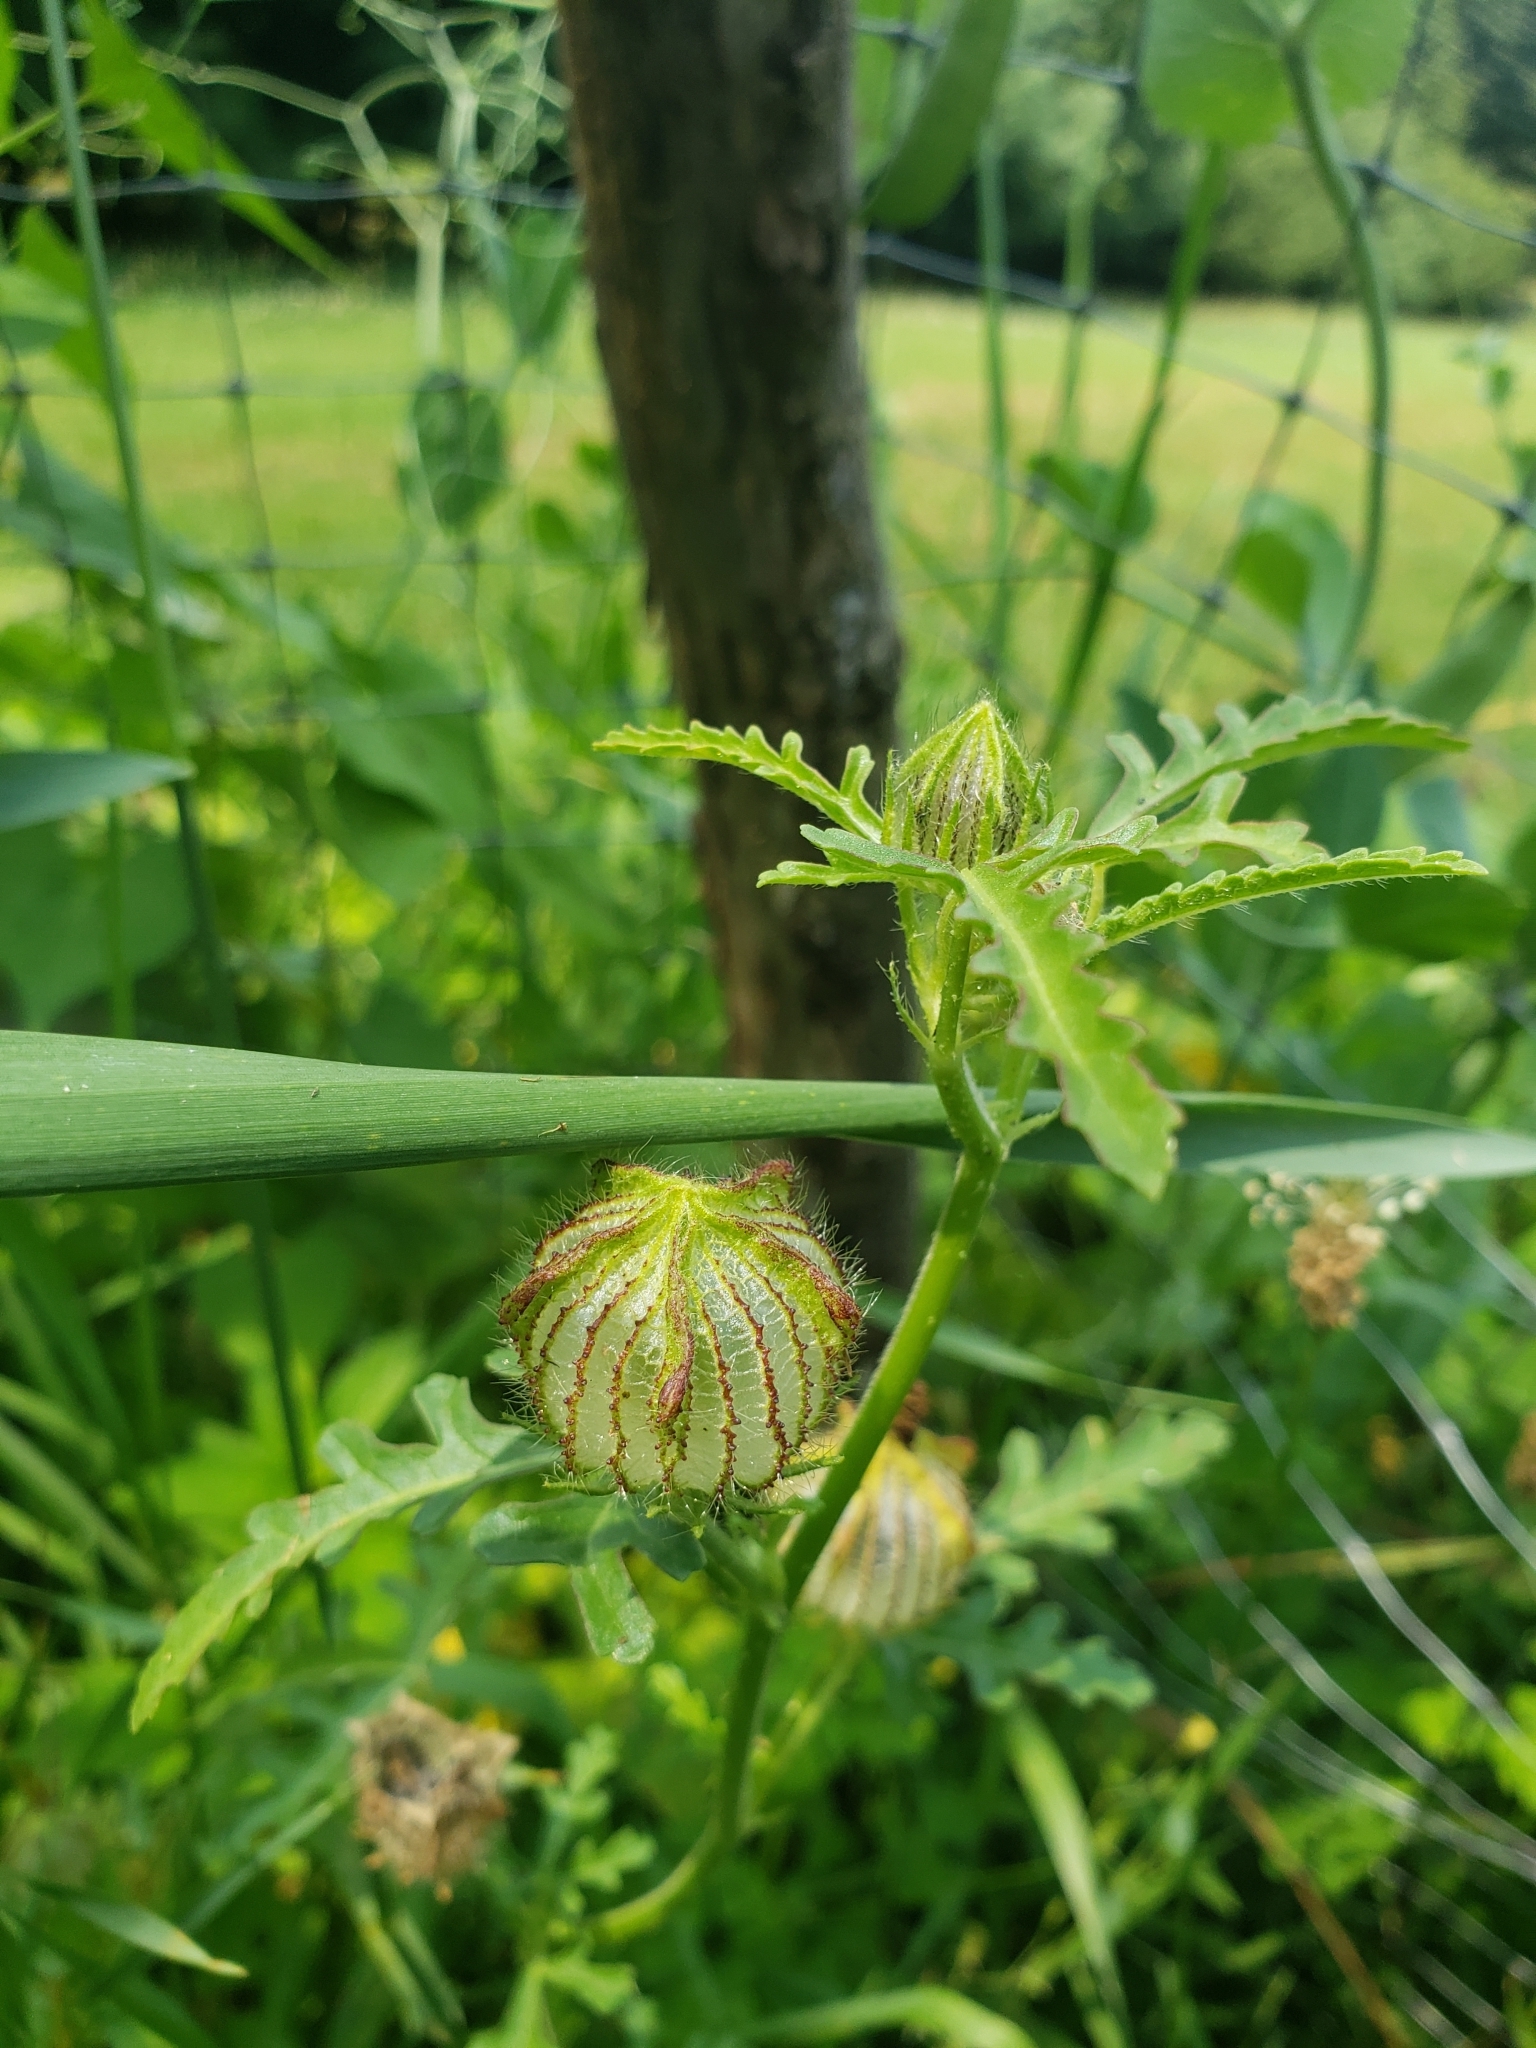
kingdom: Plantae
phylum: Tracheophyta
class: Magnoliopsida
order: Malvales
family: Malvaceae
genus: Hibiscus
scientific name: Hibiscus trionum
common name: Bladder ketmia
